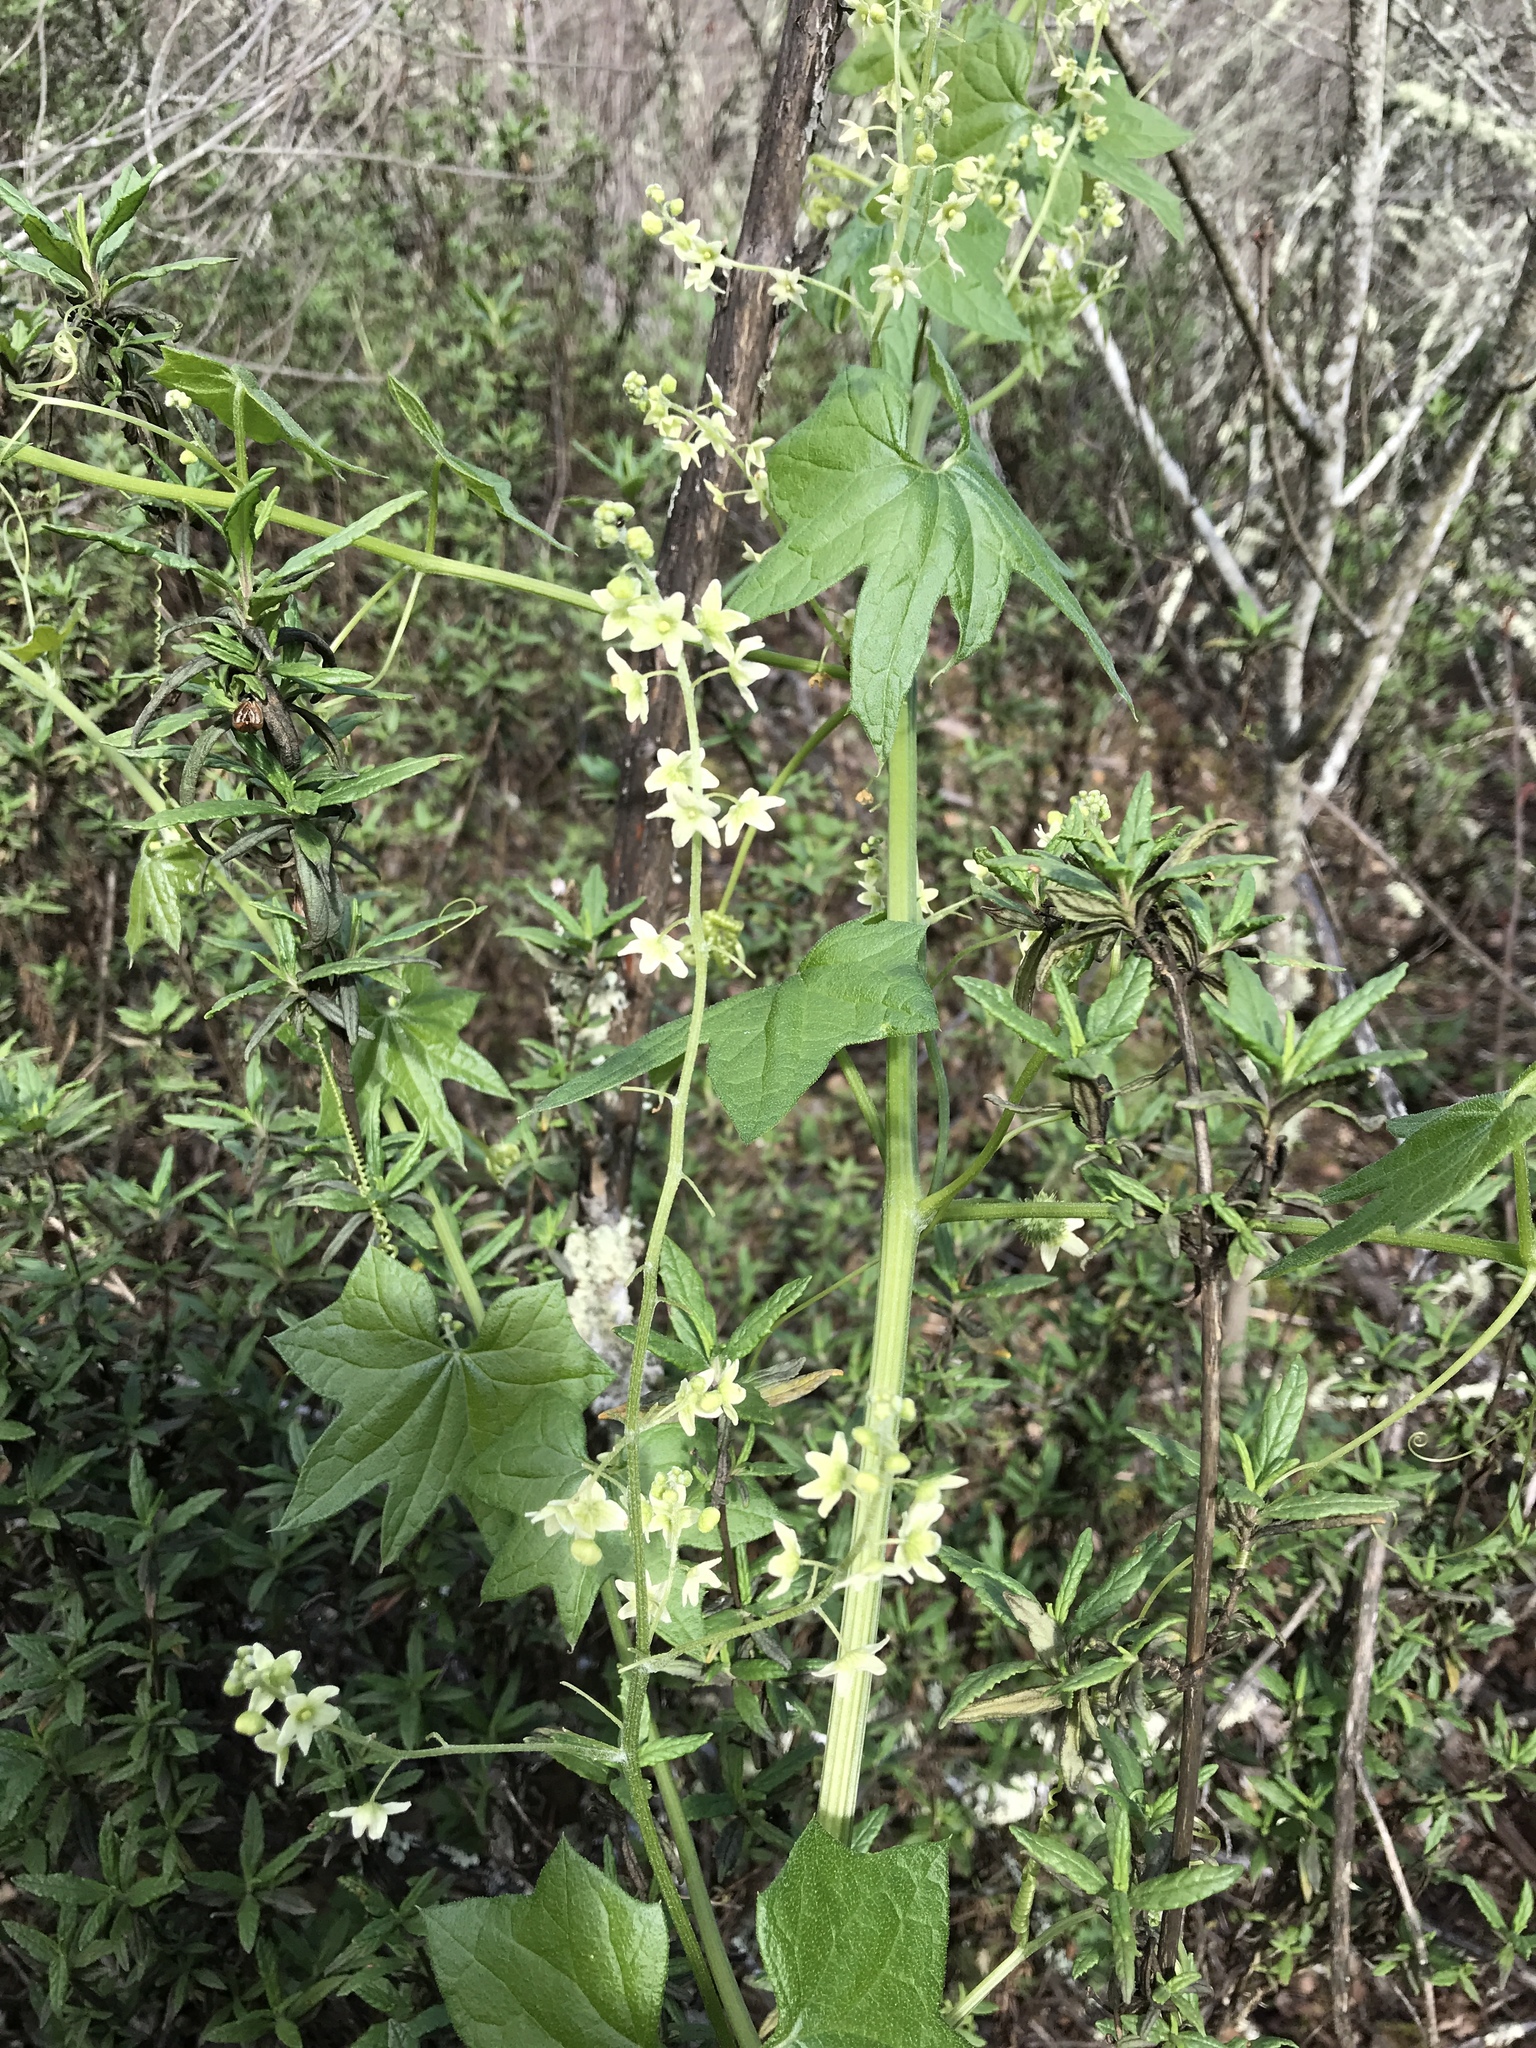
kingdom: Plantae
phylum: Tracheophyta
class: Magnoliopsida
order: Cucurbitales
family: Cucurbitaceae
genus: Marah
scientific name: Marah fabacea
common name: California manroot
